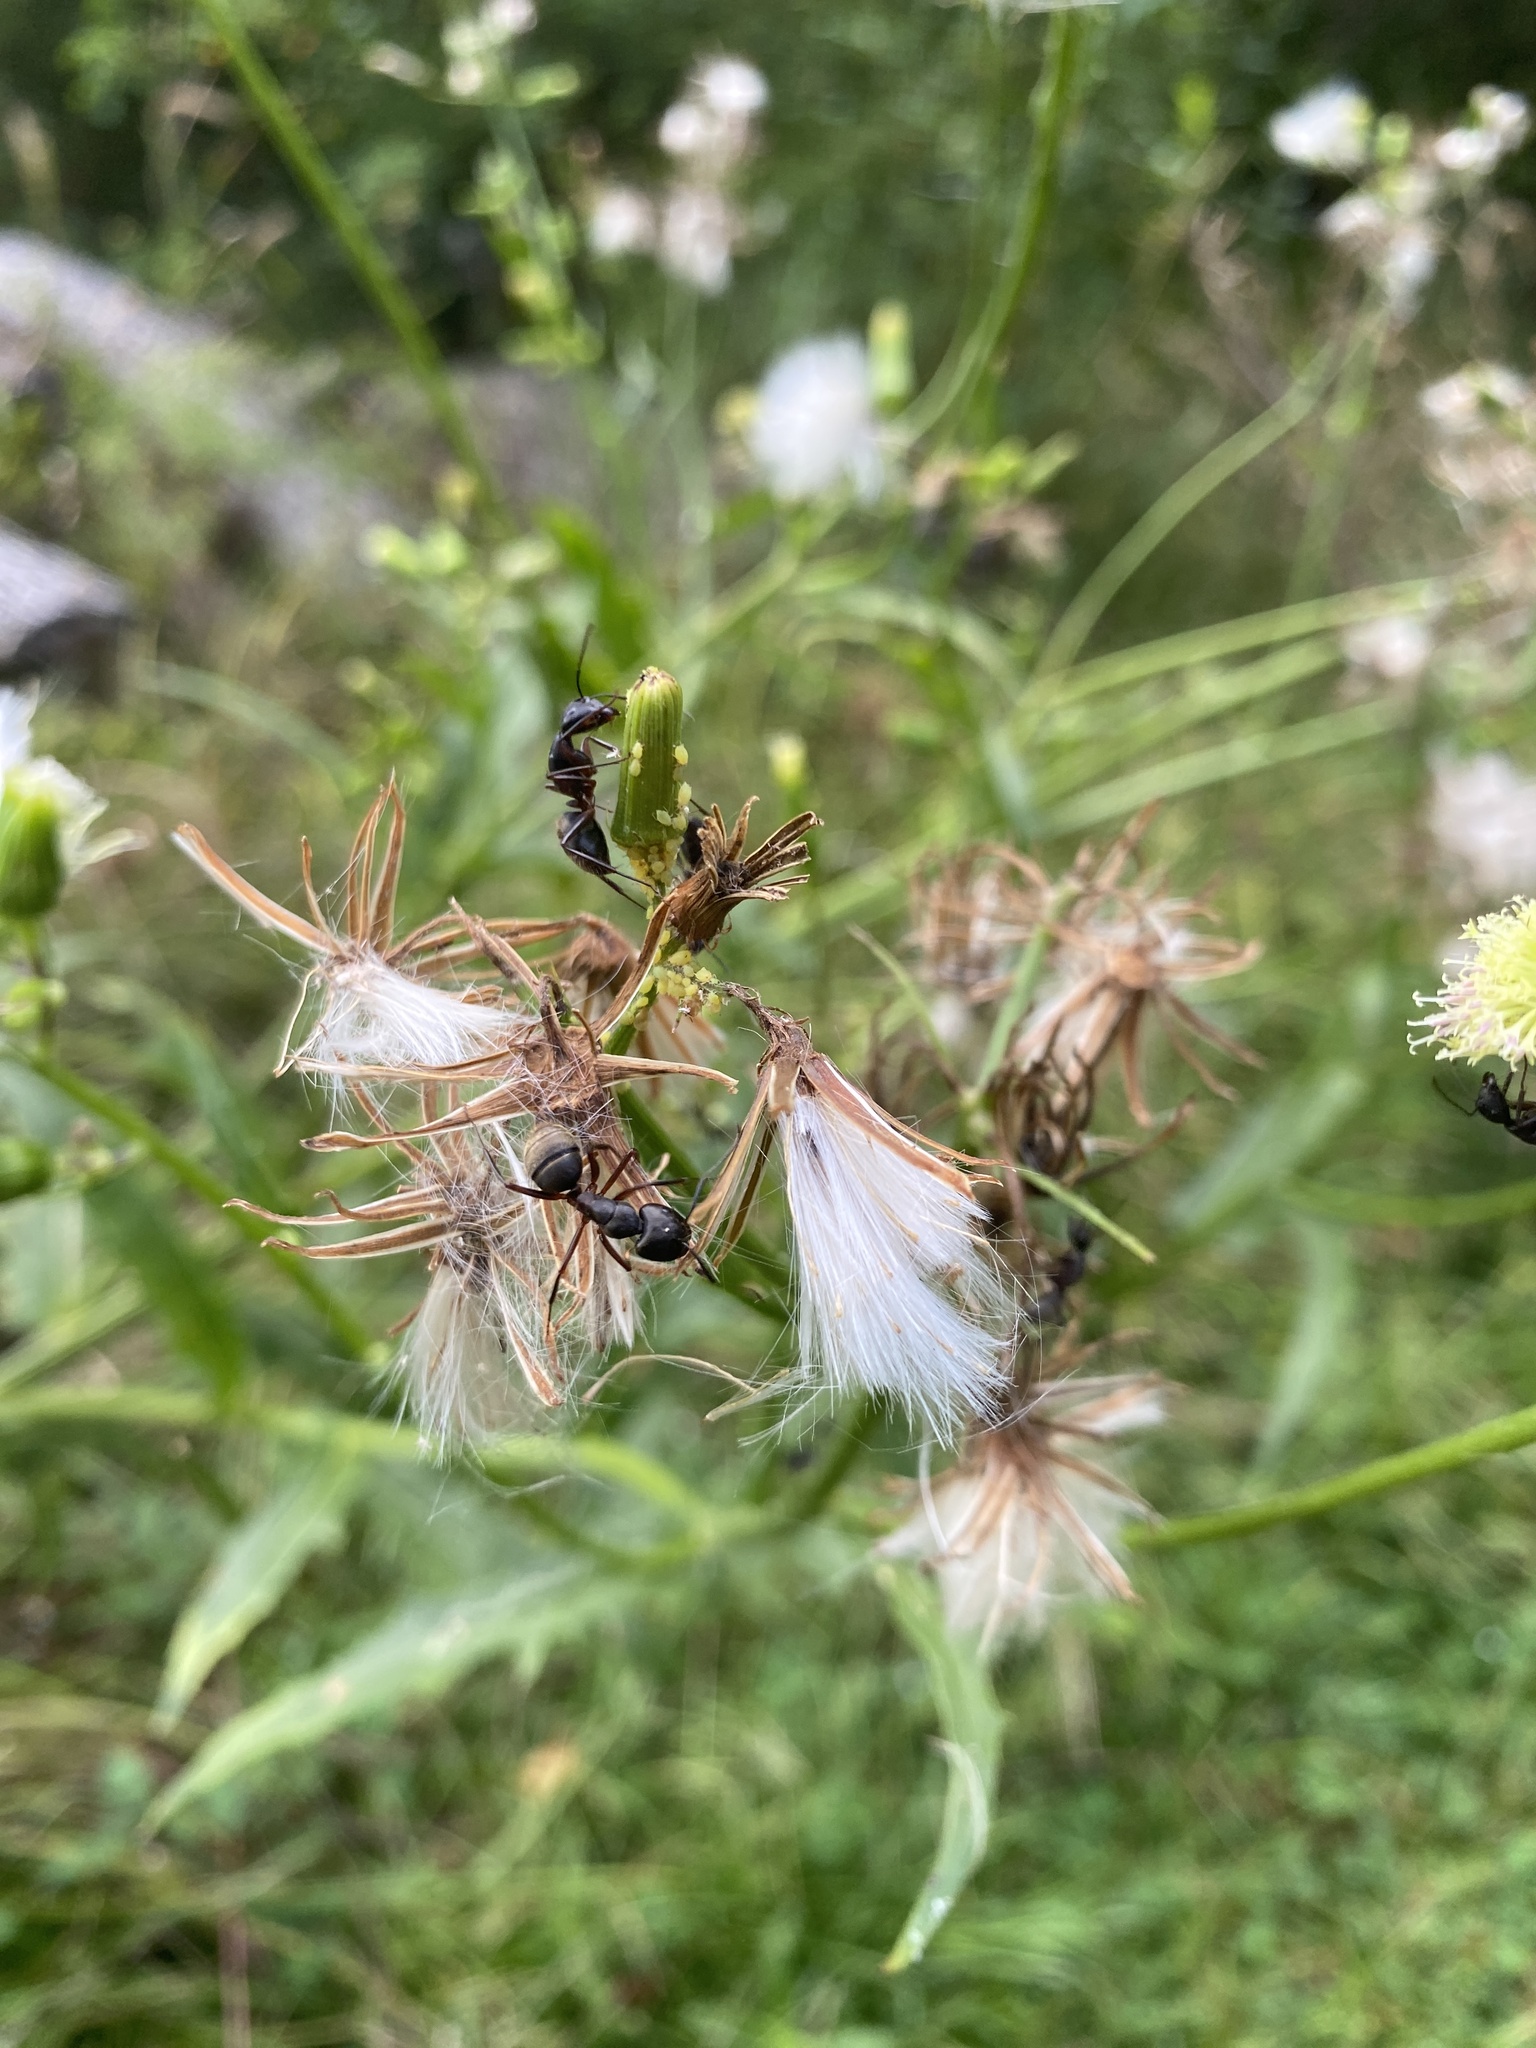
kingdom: Animalia
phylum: Arthropoda
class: Insecta
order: Hymenoptera
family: Formicidae
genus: Camponotus
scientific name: Camponotus pennsylvanicus
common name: Black carpenter ant
